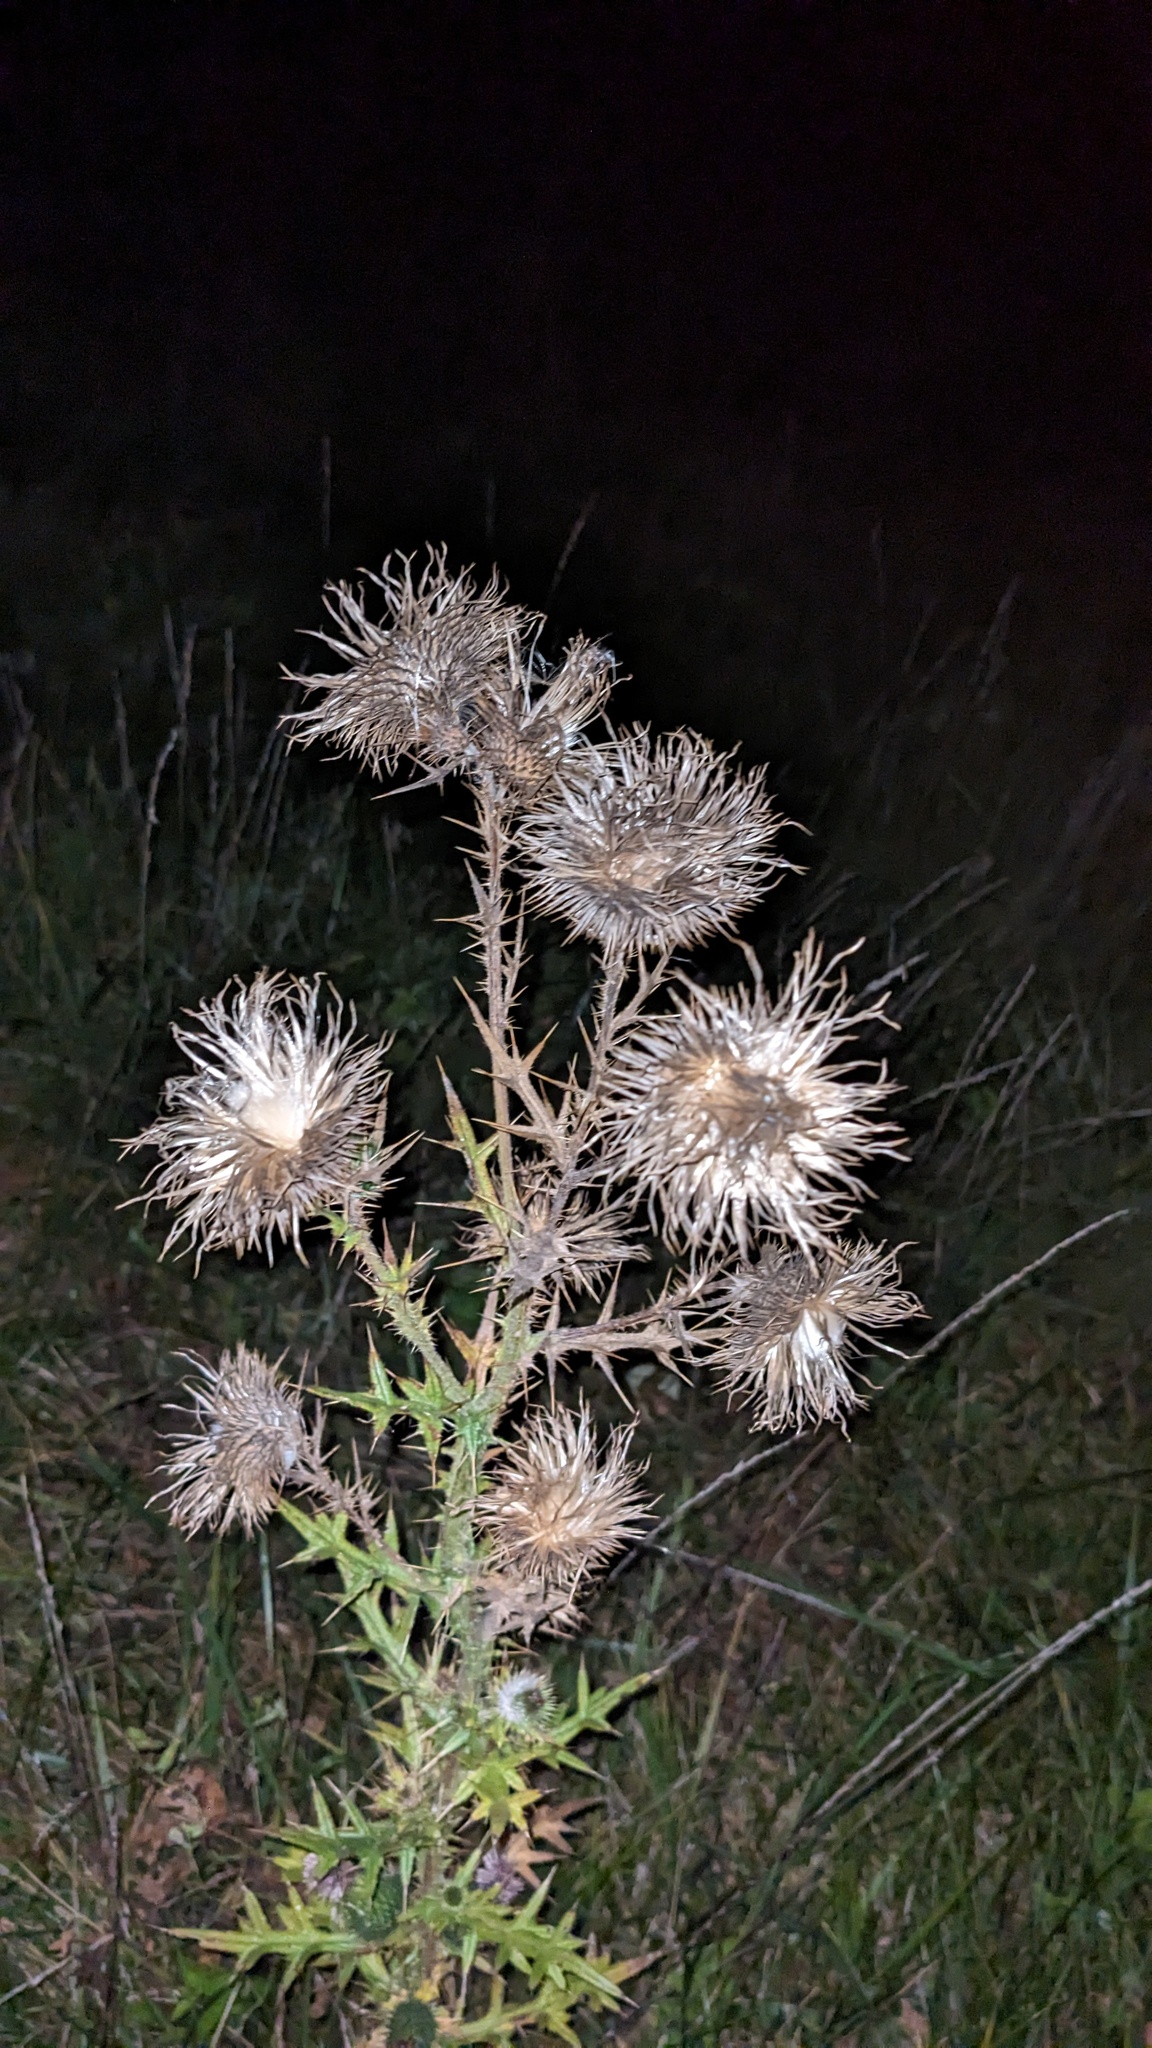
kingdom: Plantae
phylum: Tracheophyta
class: Magnoliopsida
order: Asterales
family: Asteraceae
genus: Cirsium
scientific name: Cirsium vulgare
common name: Bull thistle
